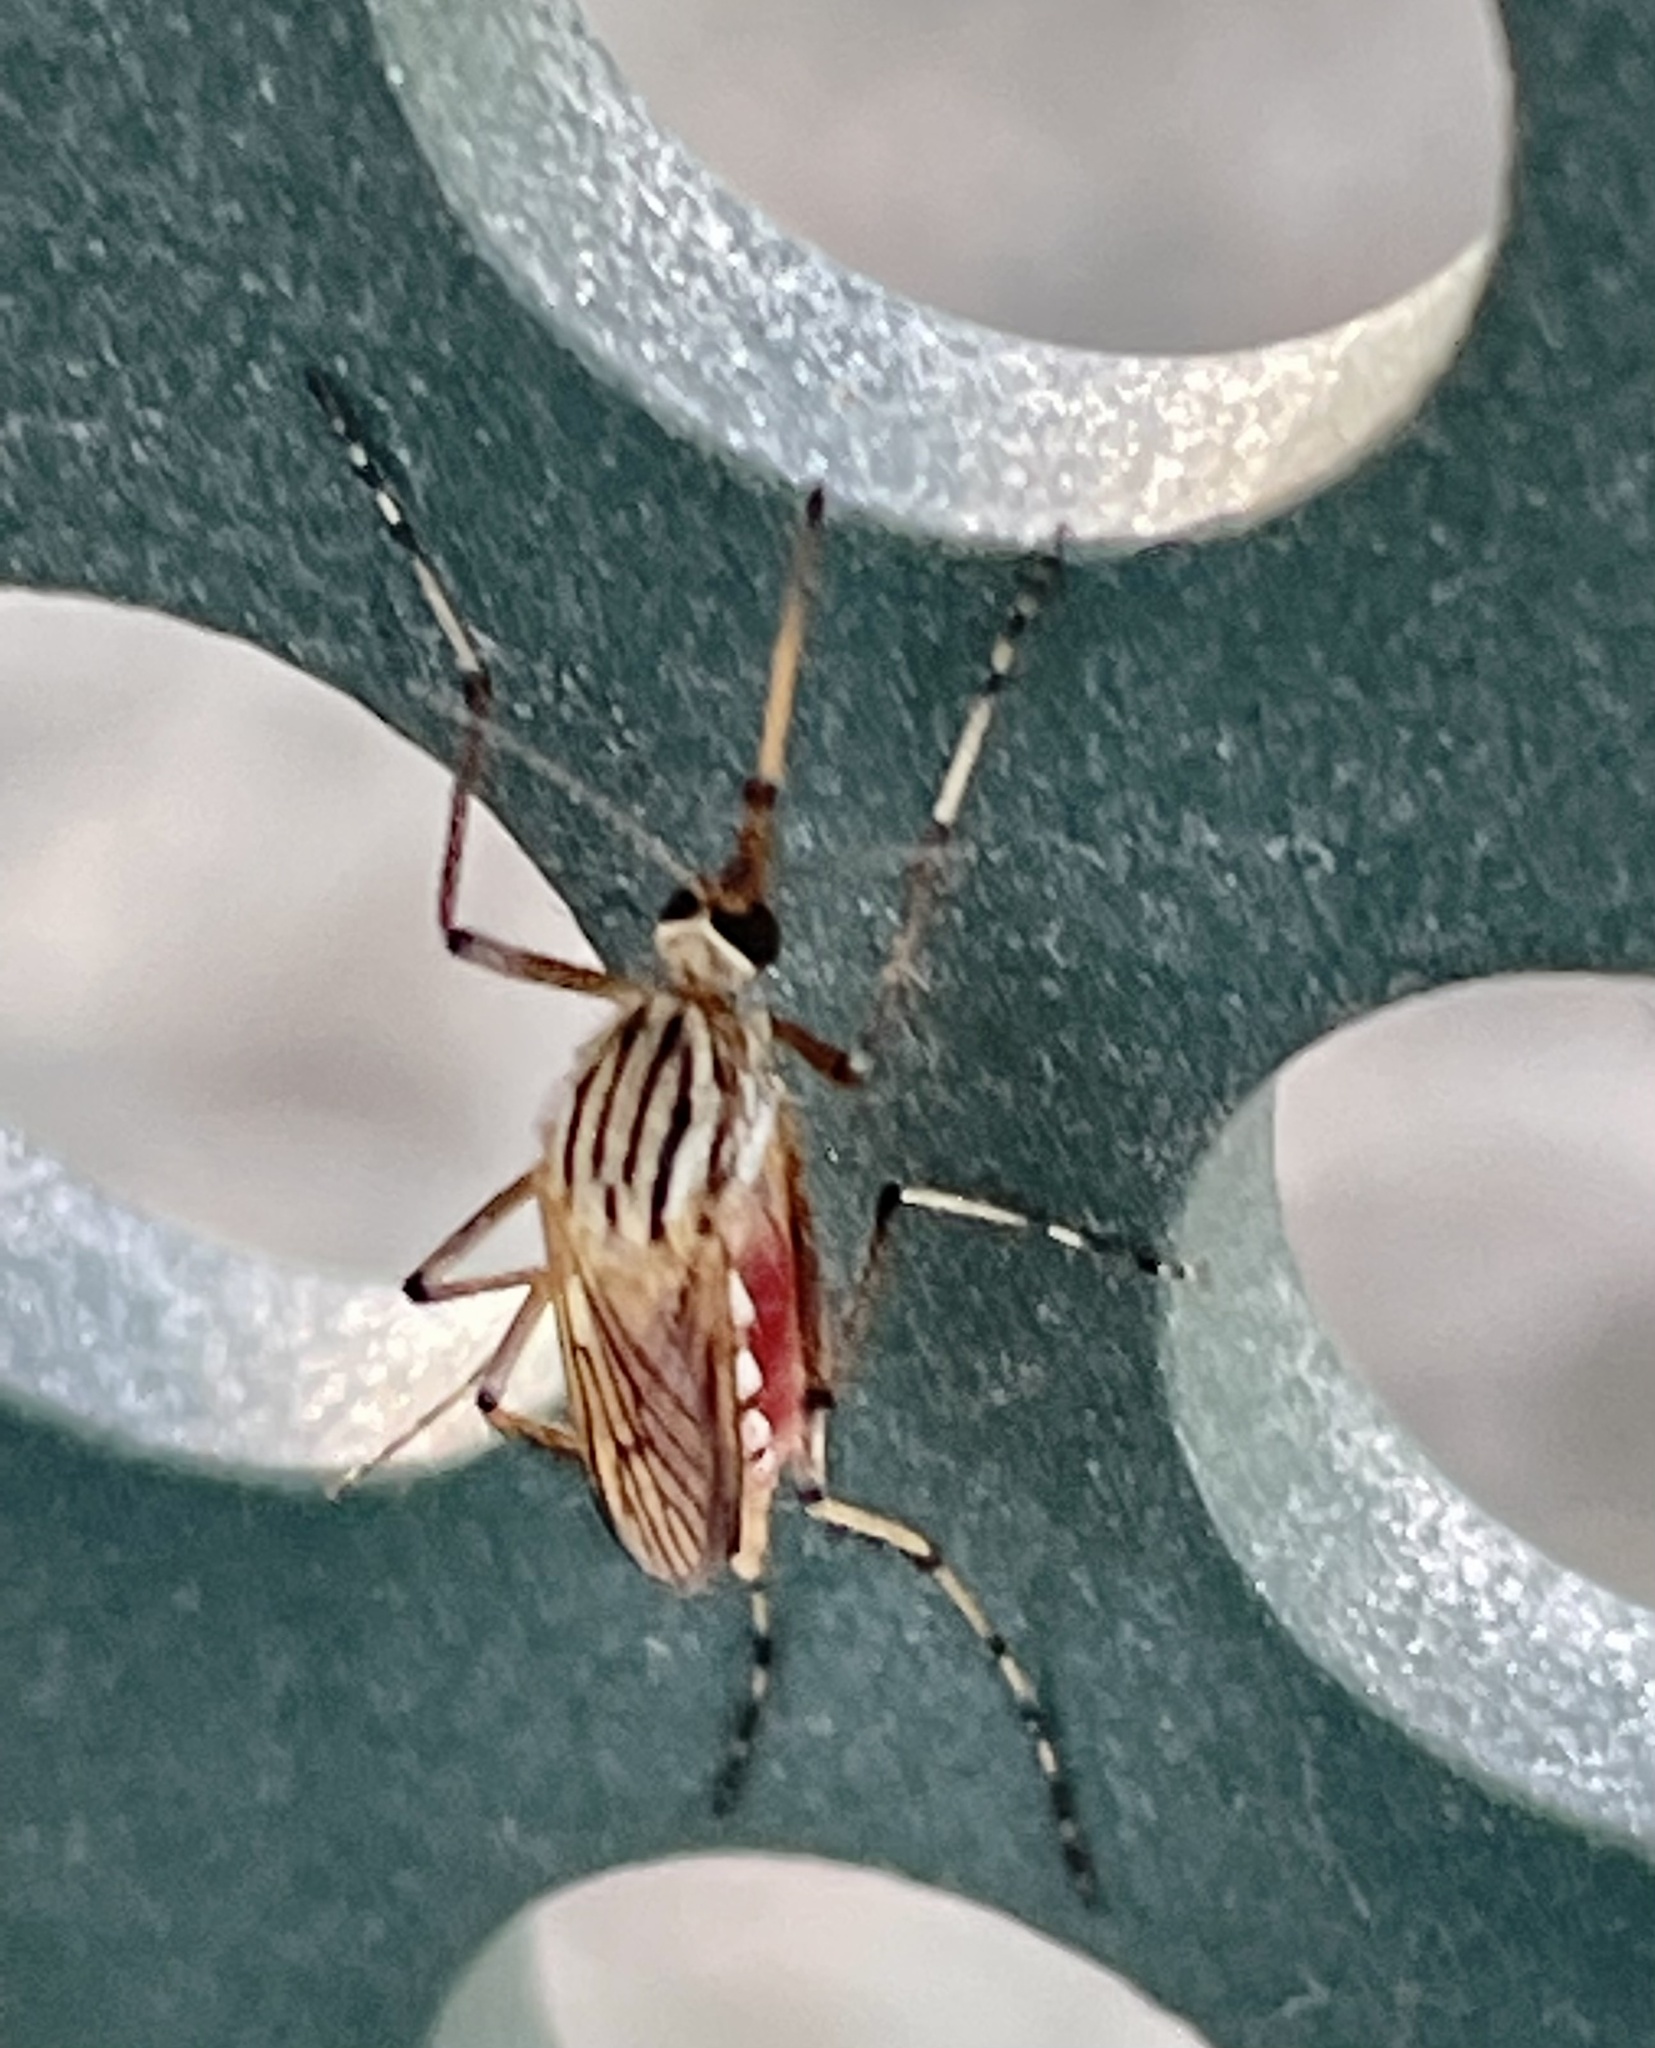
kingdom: Animalia
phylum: Arthropoda
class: Insecta
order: Diptera
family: Culicidae
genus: Aedes
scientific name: Aedes vittiger
